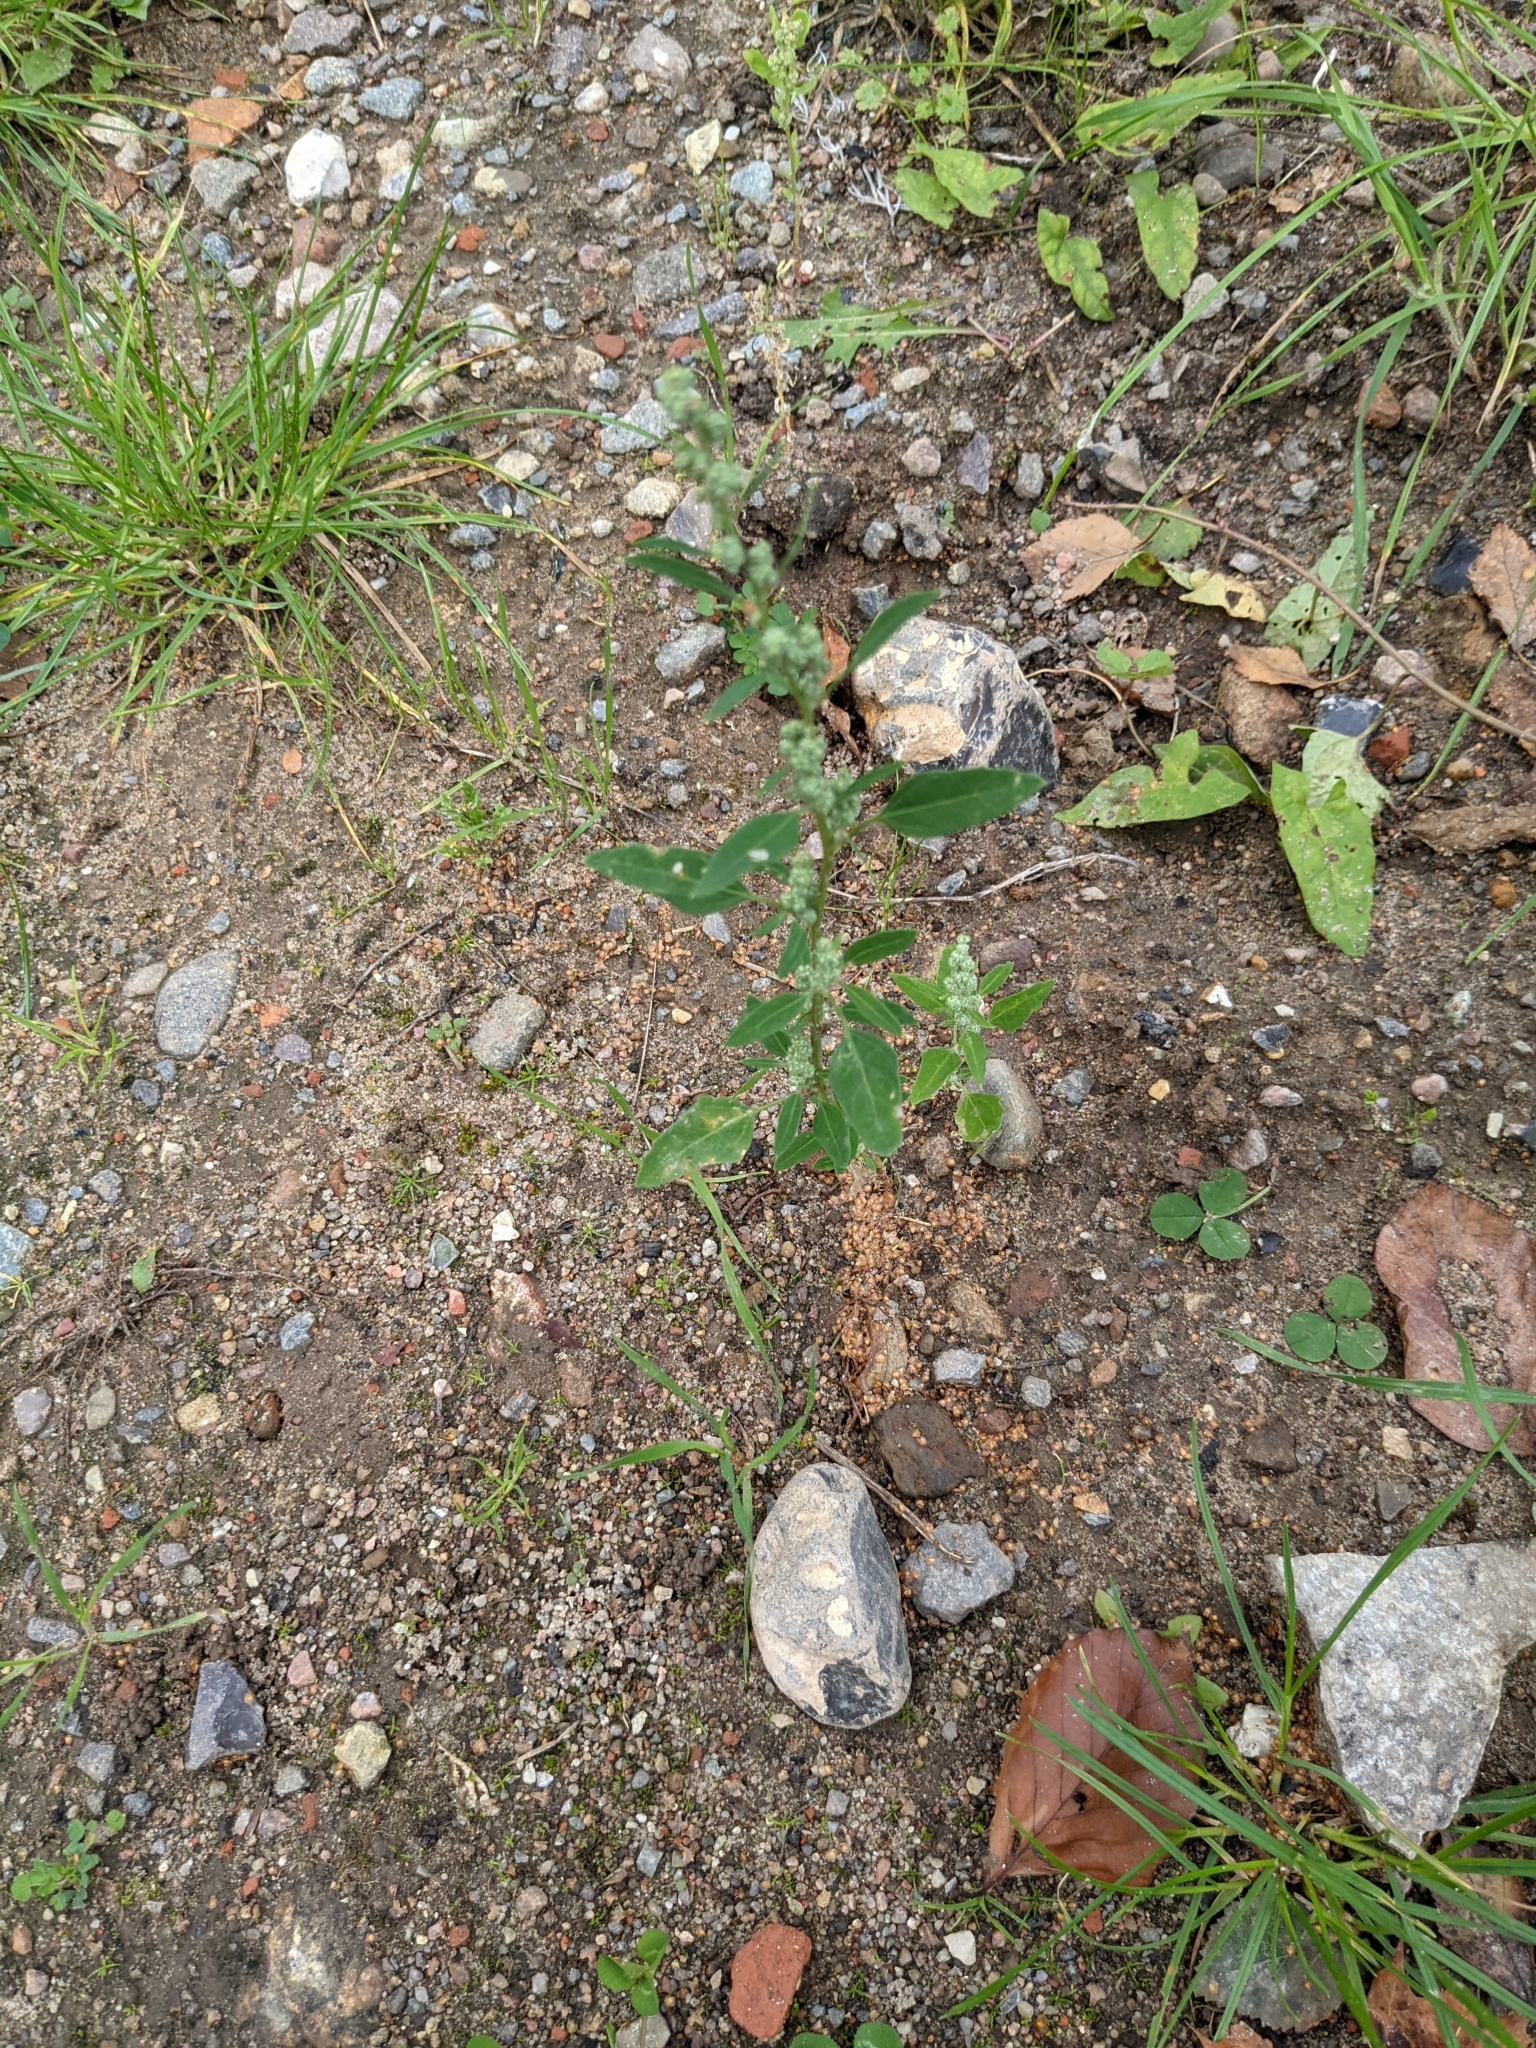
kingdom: Plantae
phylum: Tracheophyta
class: Magnoliopsida
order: Caryophyllales
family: Amaranthaceae
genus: Chenopodium
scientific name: Chenopodium album
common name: Fat-hen
